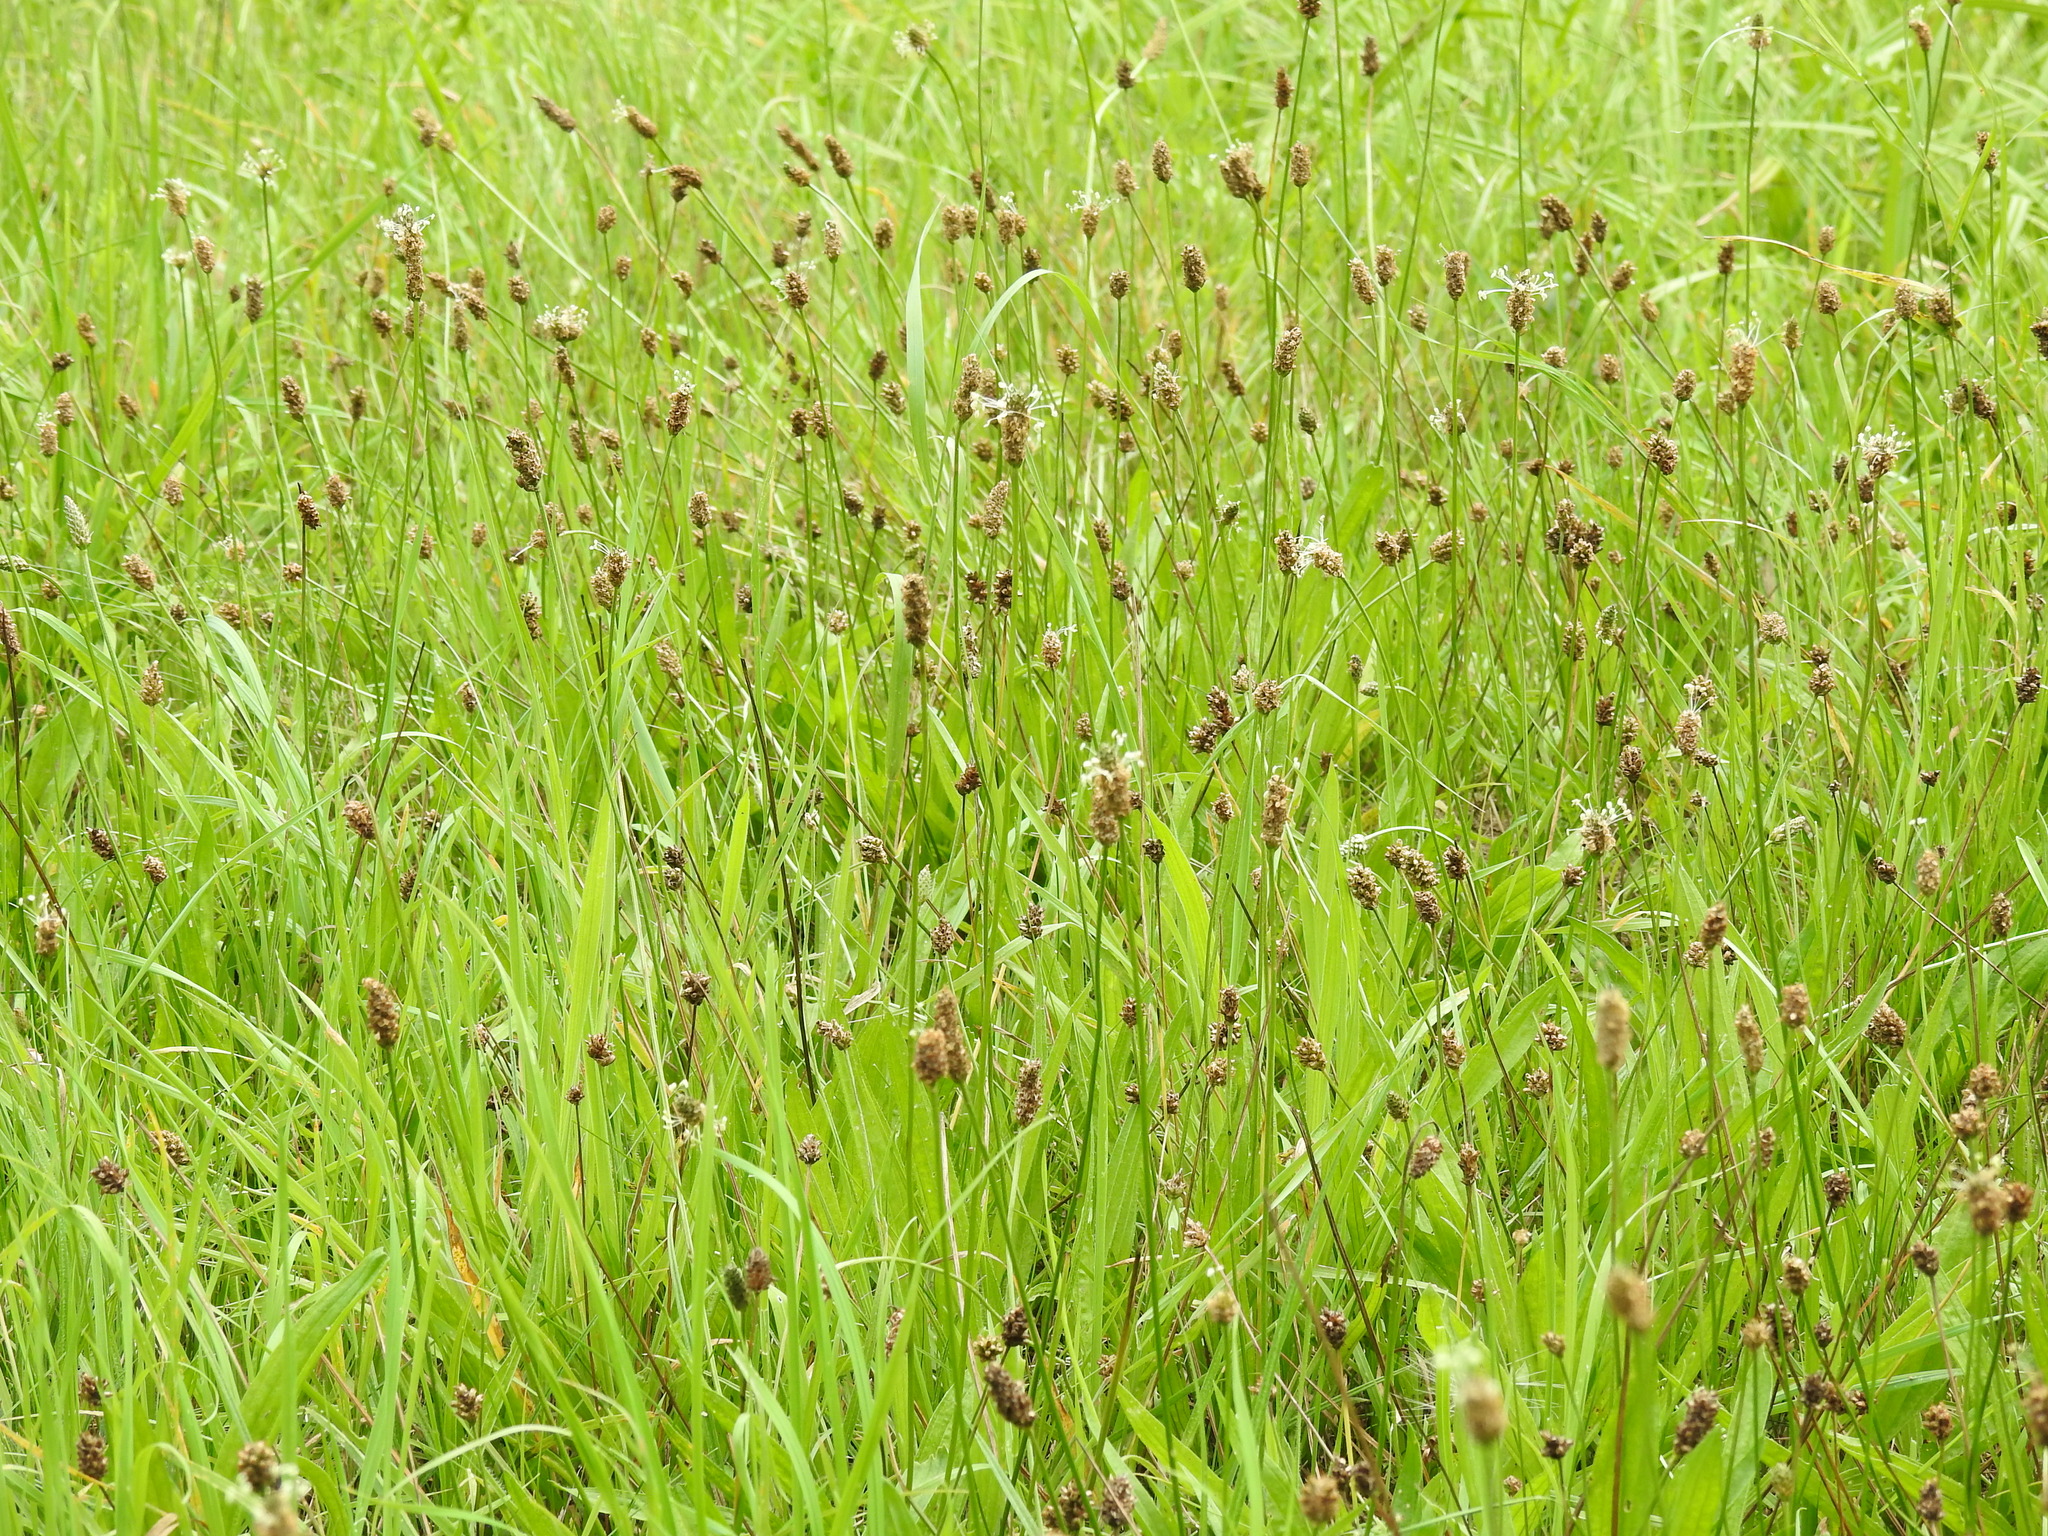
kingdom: Plantae
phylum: Tracheophyta
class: Magnoliopsida
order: Lamiales
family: Plantaginaceae
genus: Plantago
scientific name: Plantago lanceolata
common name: Ribwort plantain
